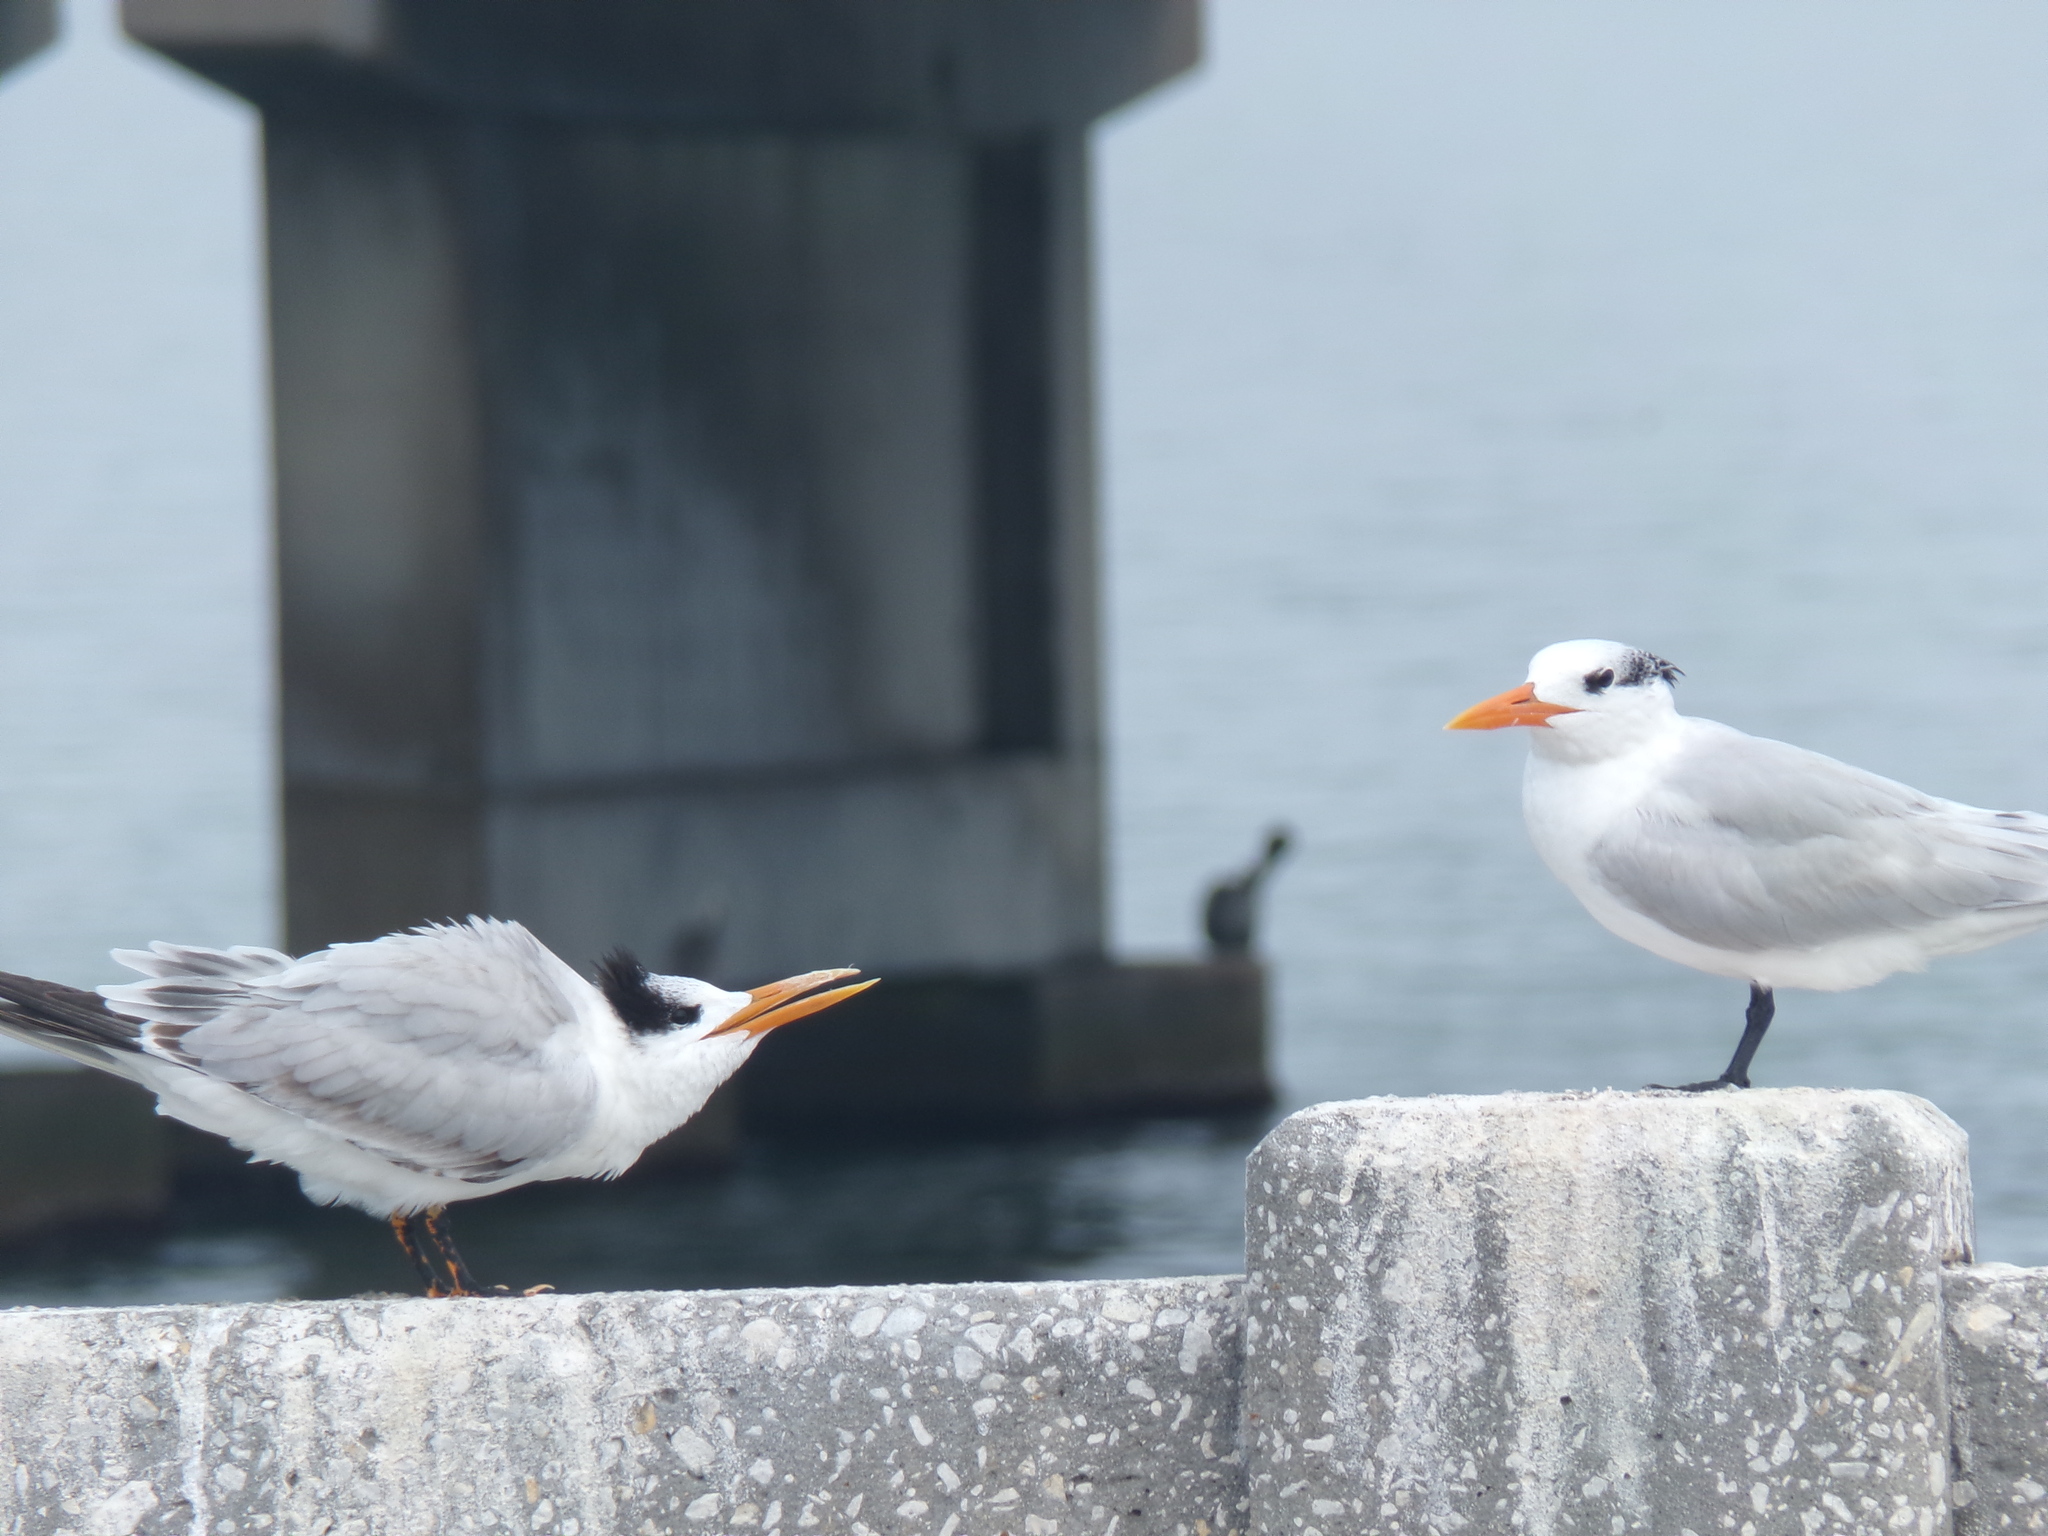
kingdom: Animalia
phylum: Chordata
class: Aves
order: Charadriiformes
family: Laridae
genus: Thalasseus
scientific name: Thalasseus maximus
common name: Royal tern
